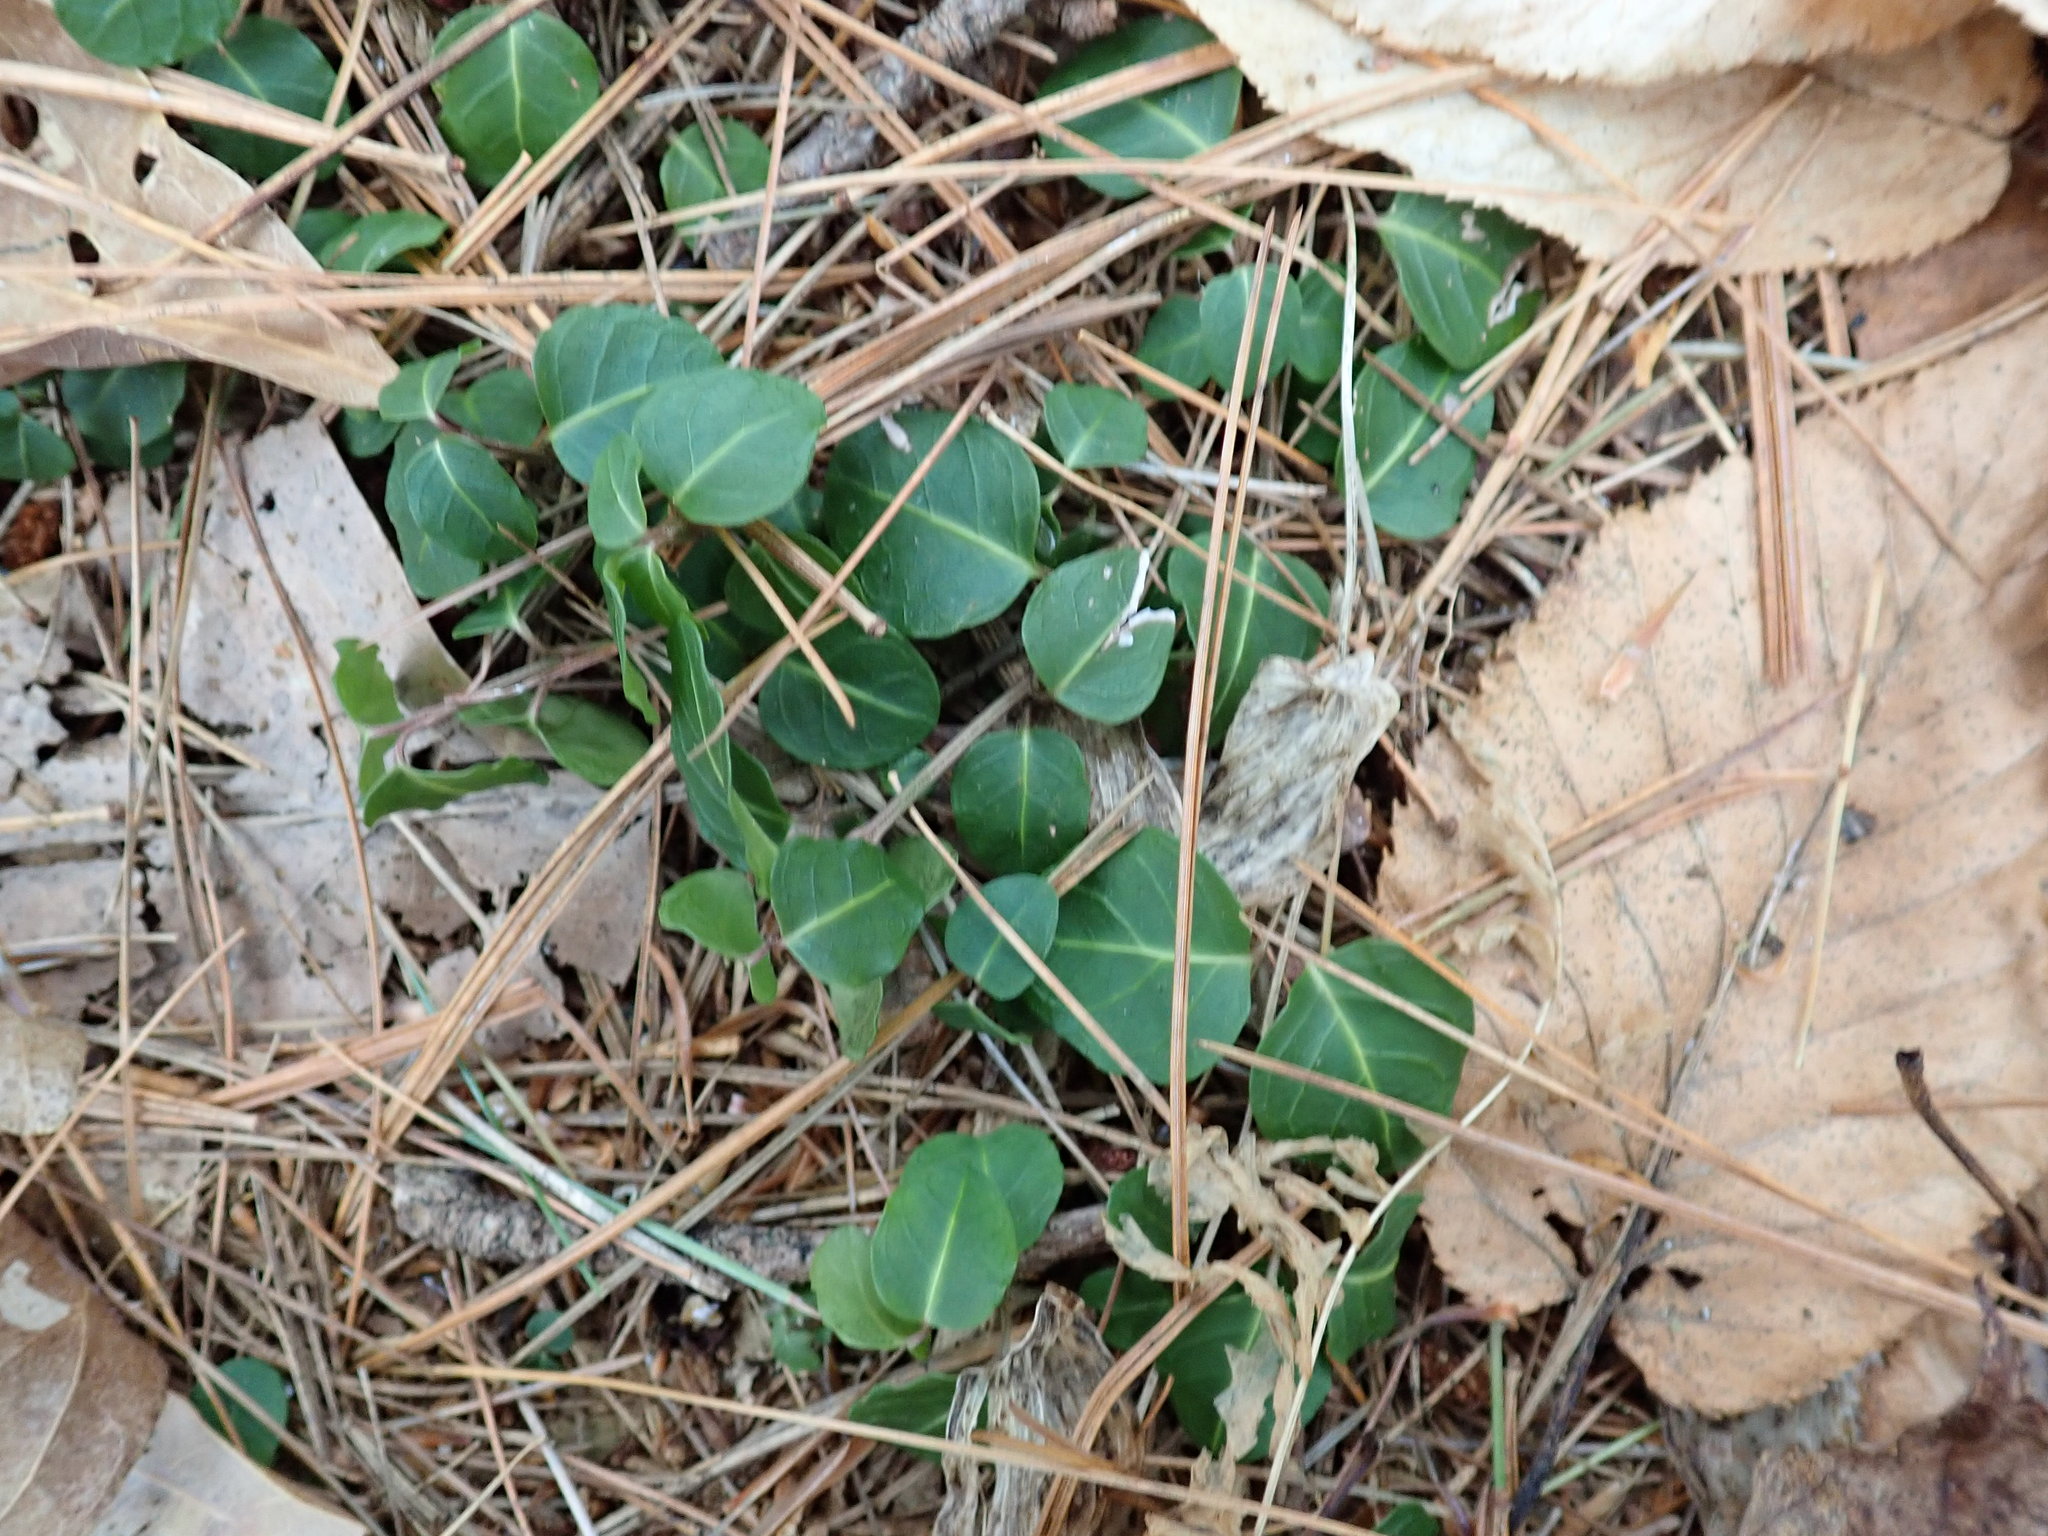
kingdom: Plantae
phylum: Tracheophyta
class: Magnoliopsida
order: Gentianales
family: Rubiaceae
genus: Mitchella
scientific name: Mitchella repens
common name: Partridge-berry
